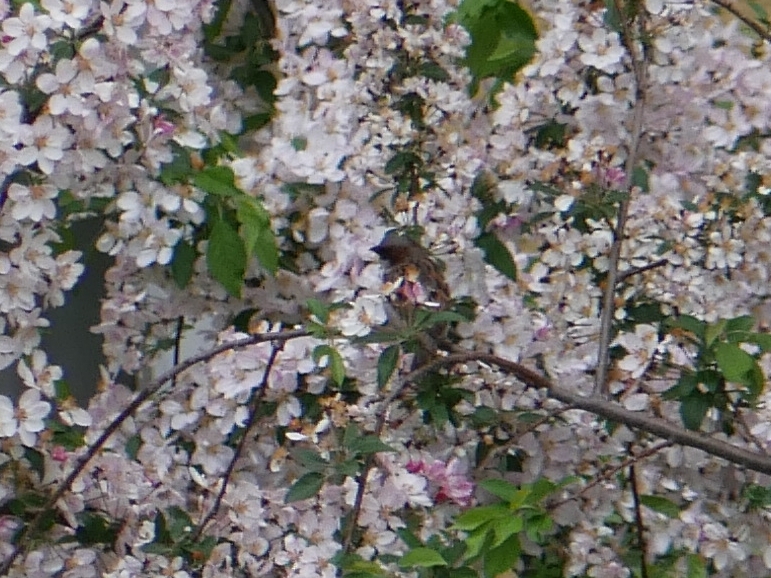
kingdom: Animalia
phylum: Chordata
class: Aves
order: Passeriformes
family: Passeridae
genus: Passer
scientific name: Passer domesticus
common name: House sparrow
